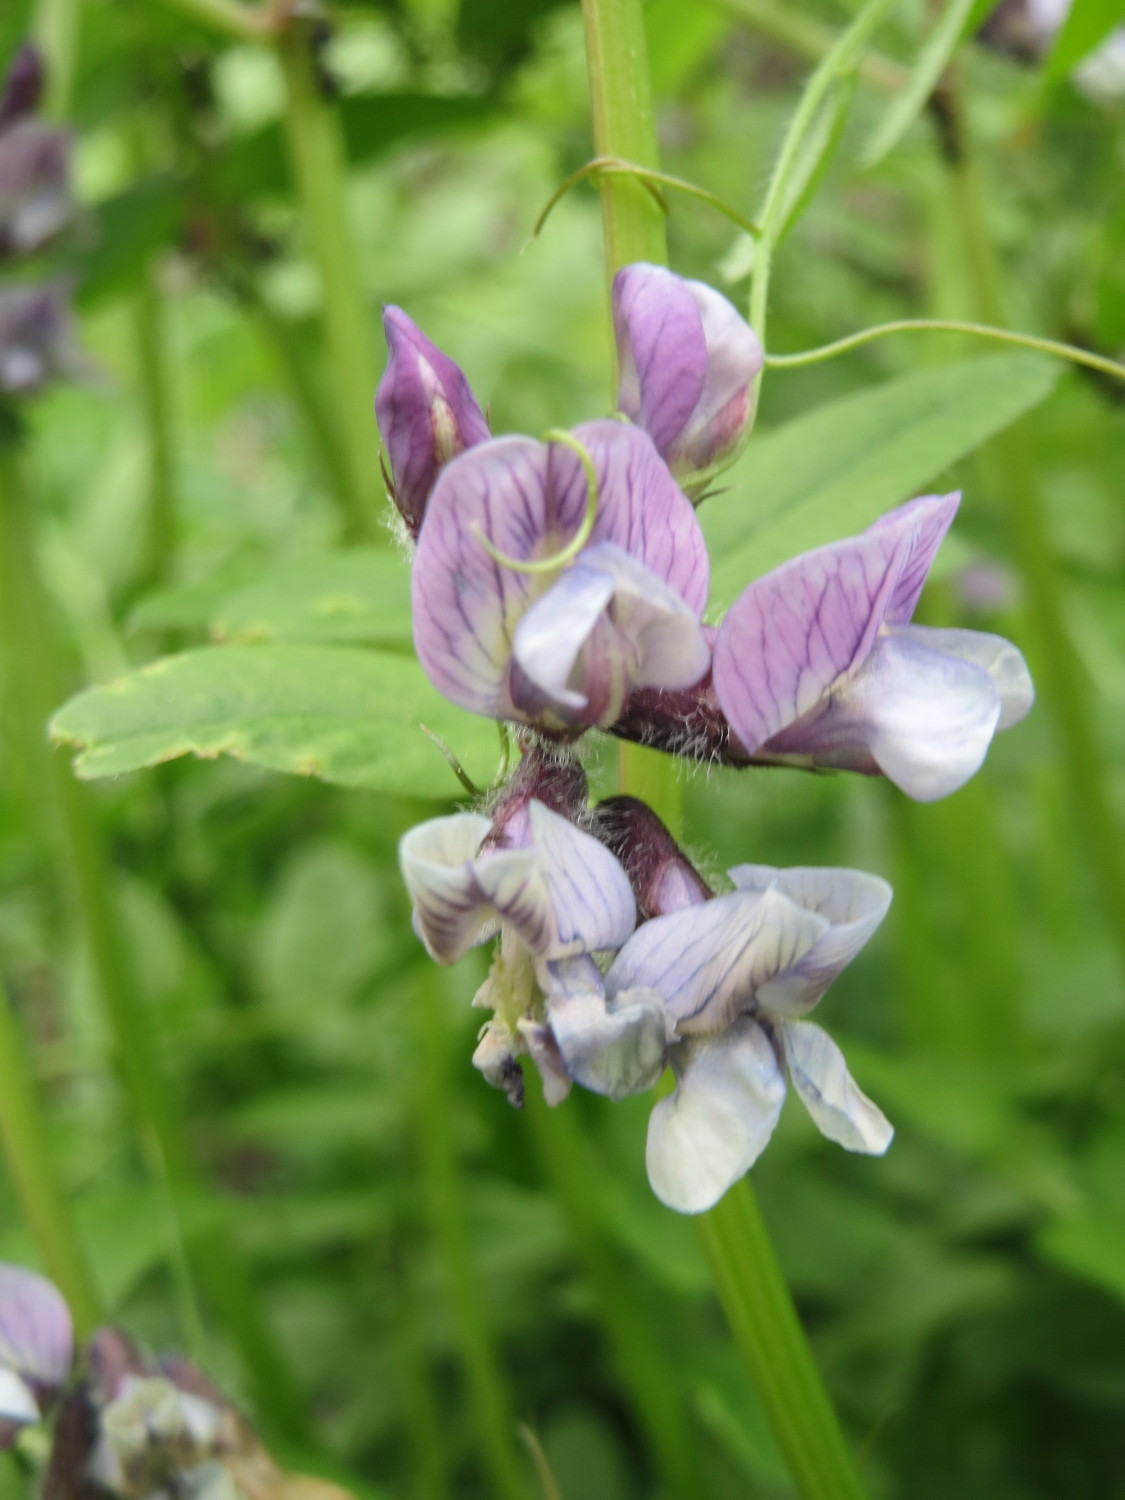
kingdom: Plantae
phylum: Tracheophyta
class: Magnoliopsida
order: Fabales
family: Fabaceae
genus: Vicia
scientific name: Vicia sepium
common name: Bush vetch
